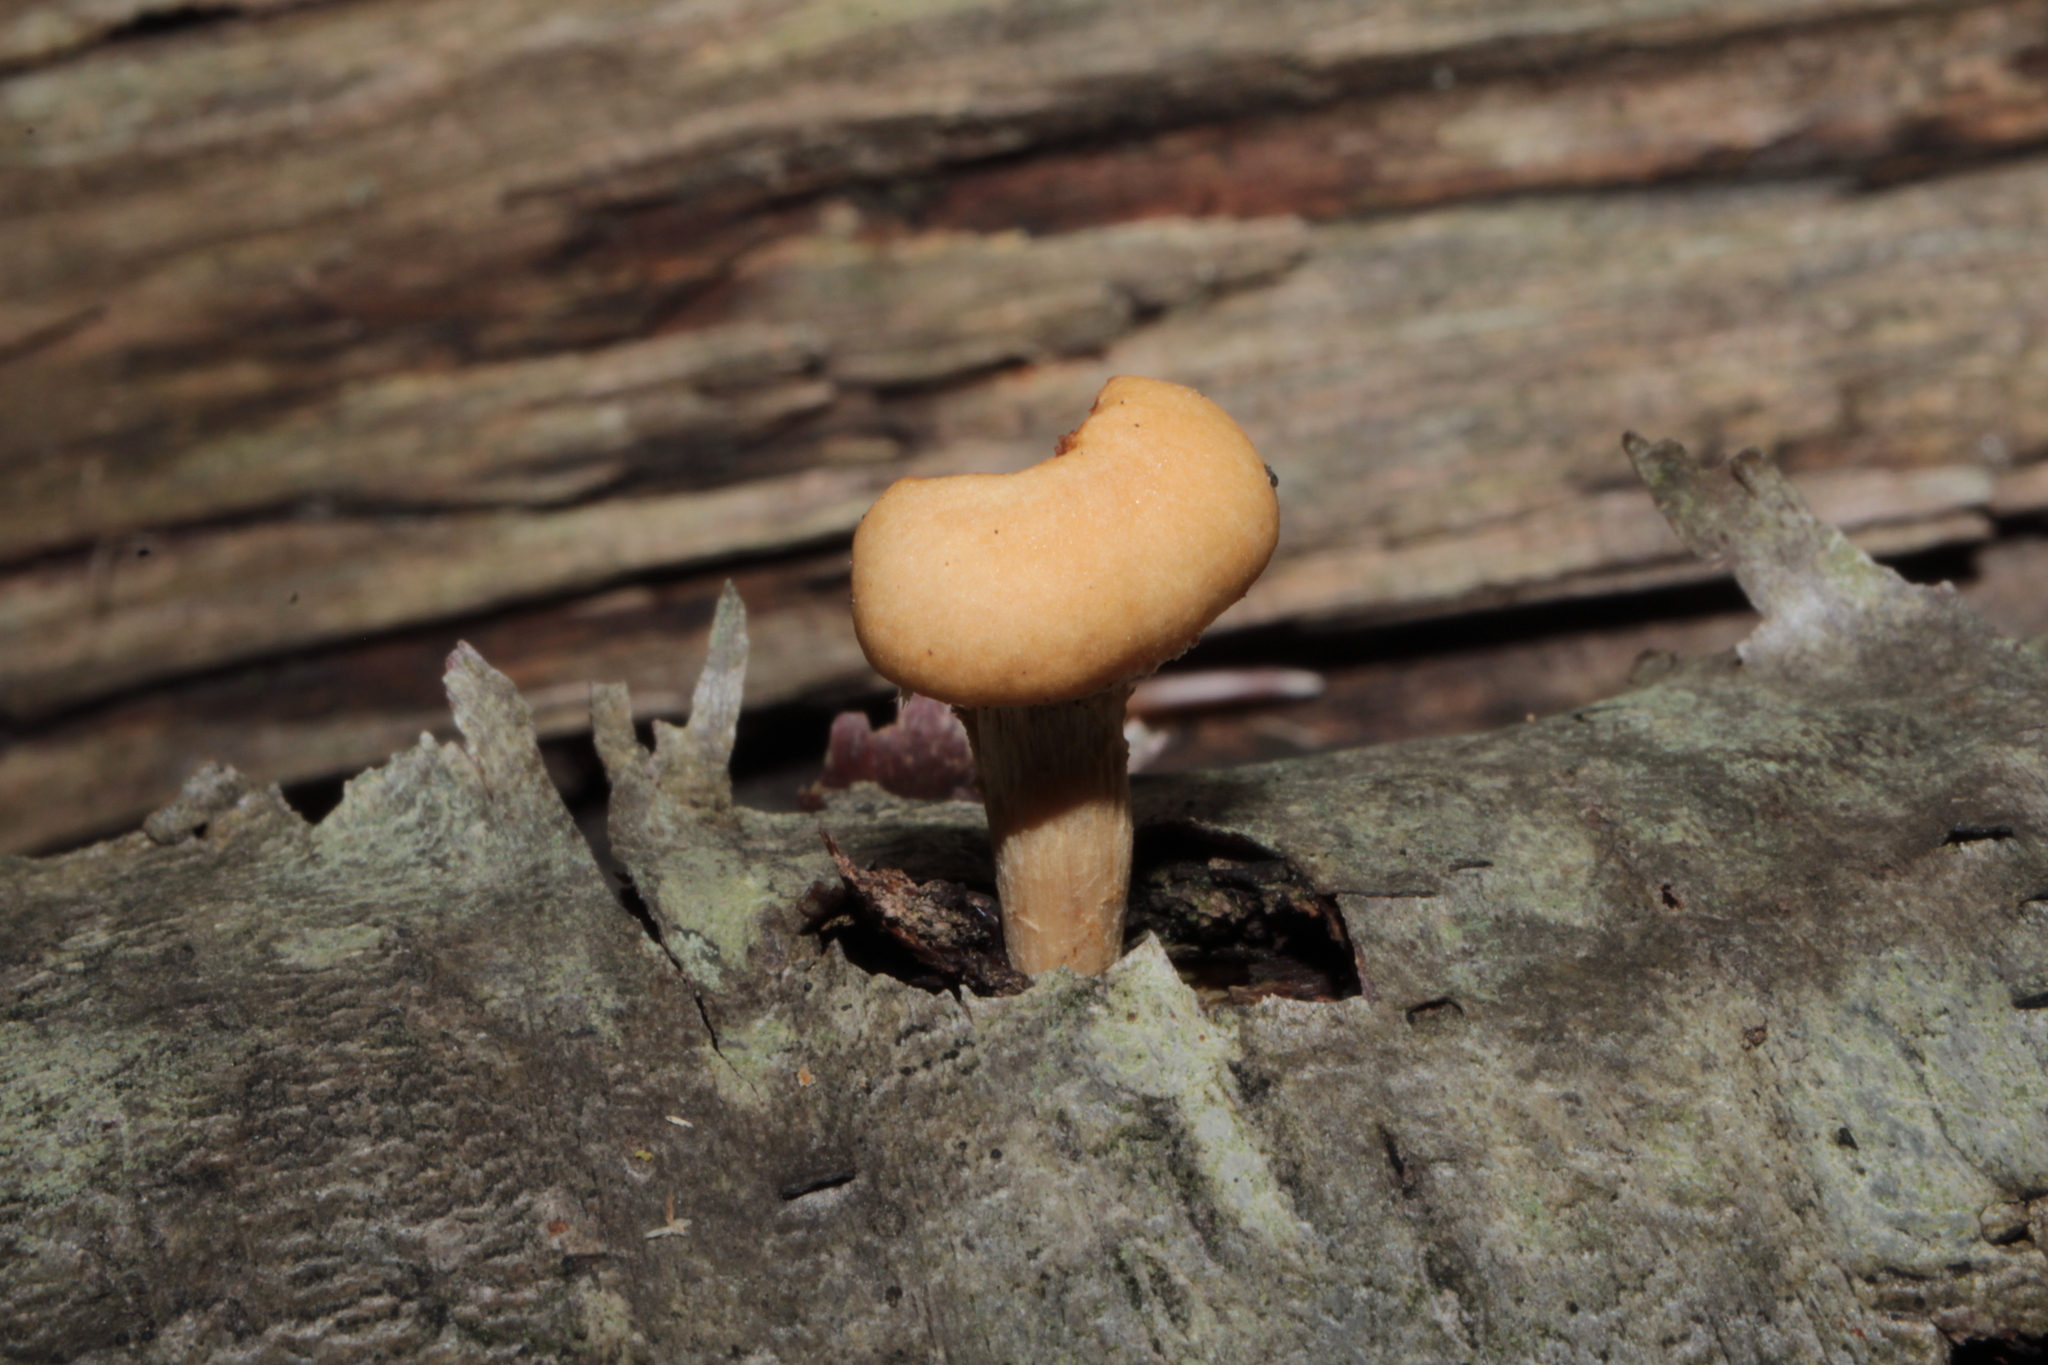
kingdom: Fungi
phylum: Basidiomycota
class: Agaricomycetes
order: Agaricales
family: Strophariaceae
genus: Kuehneromyces
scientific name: Kuehneromyces marginellus
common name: Sheathed woodtuft
